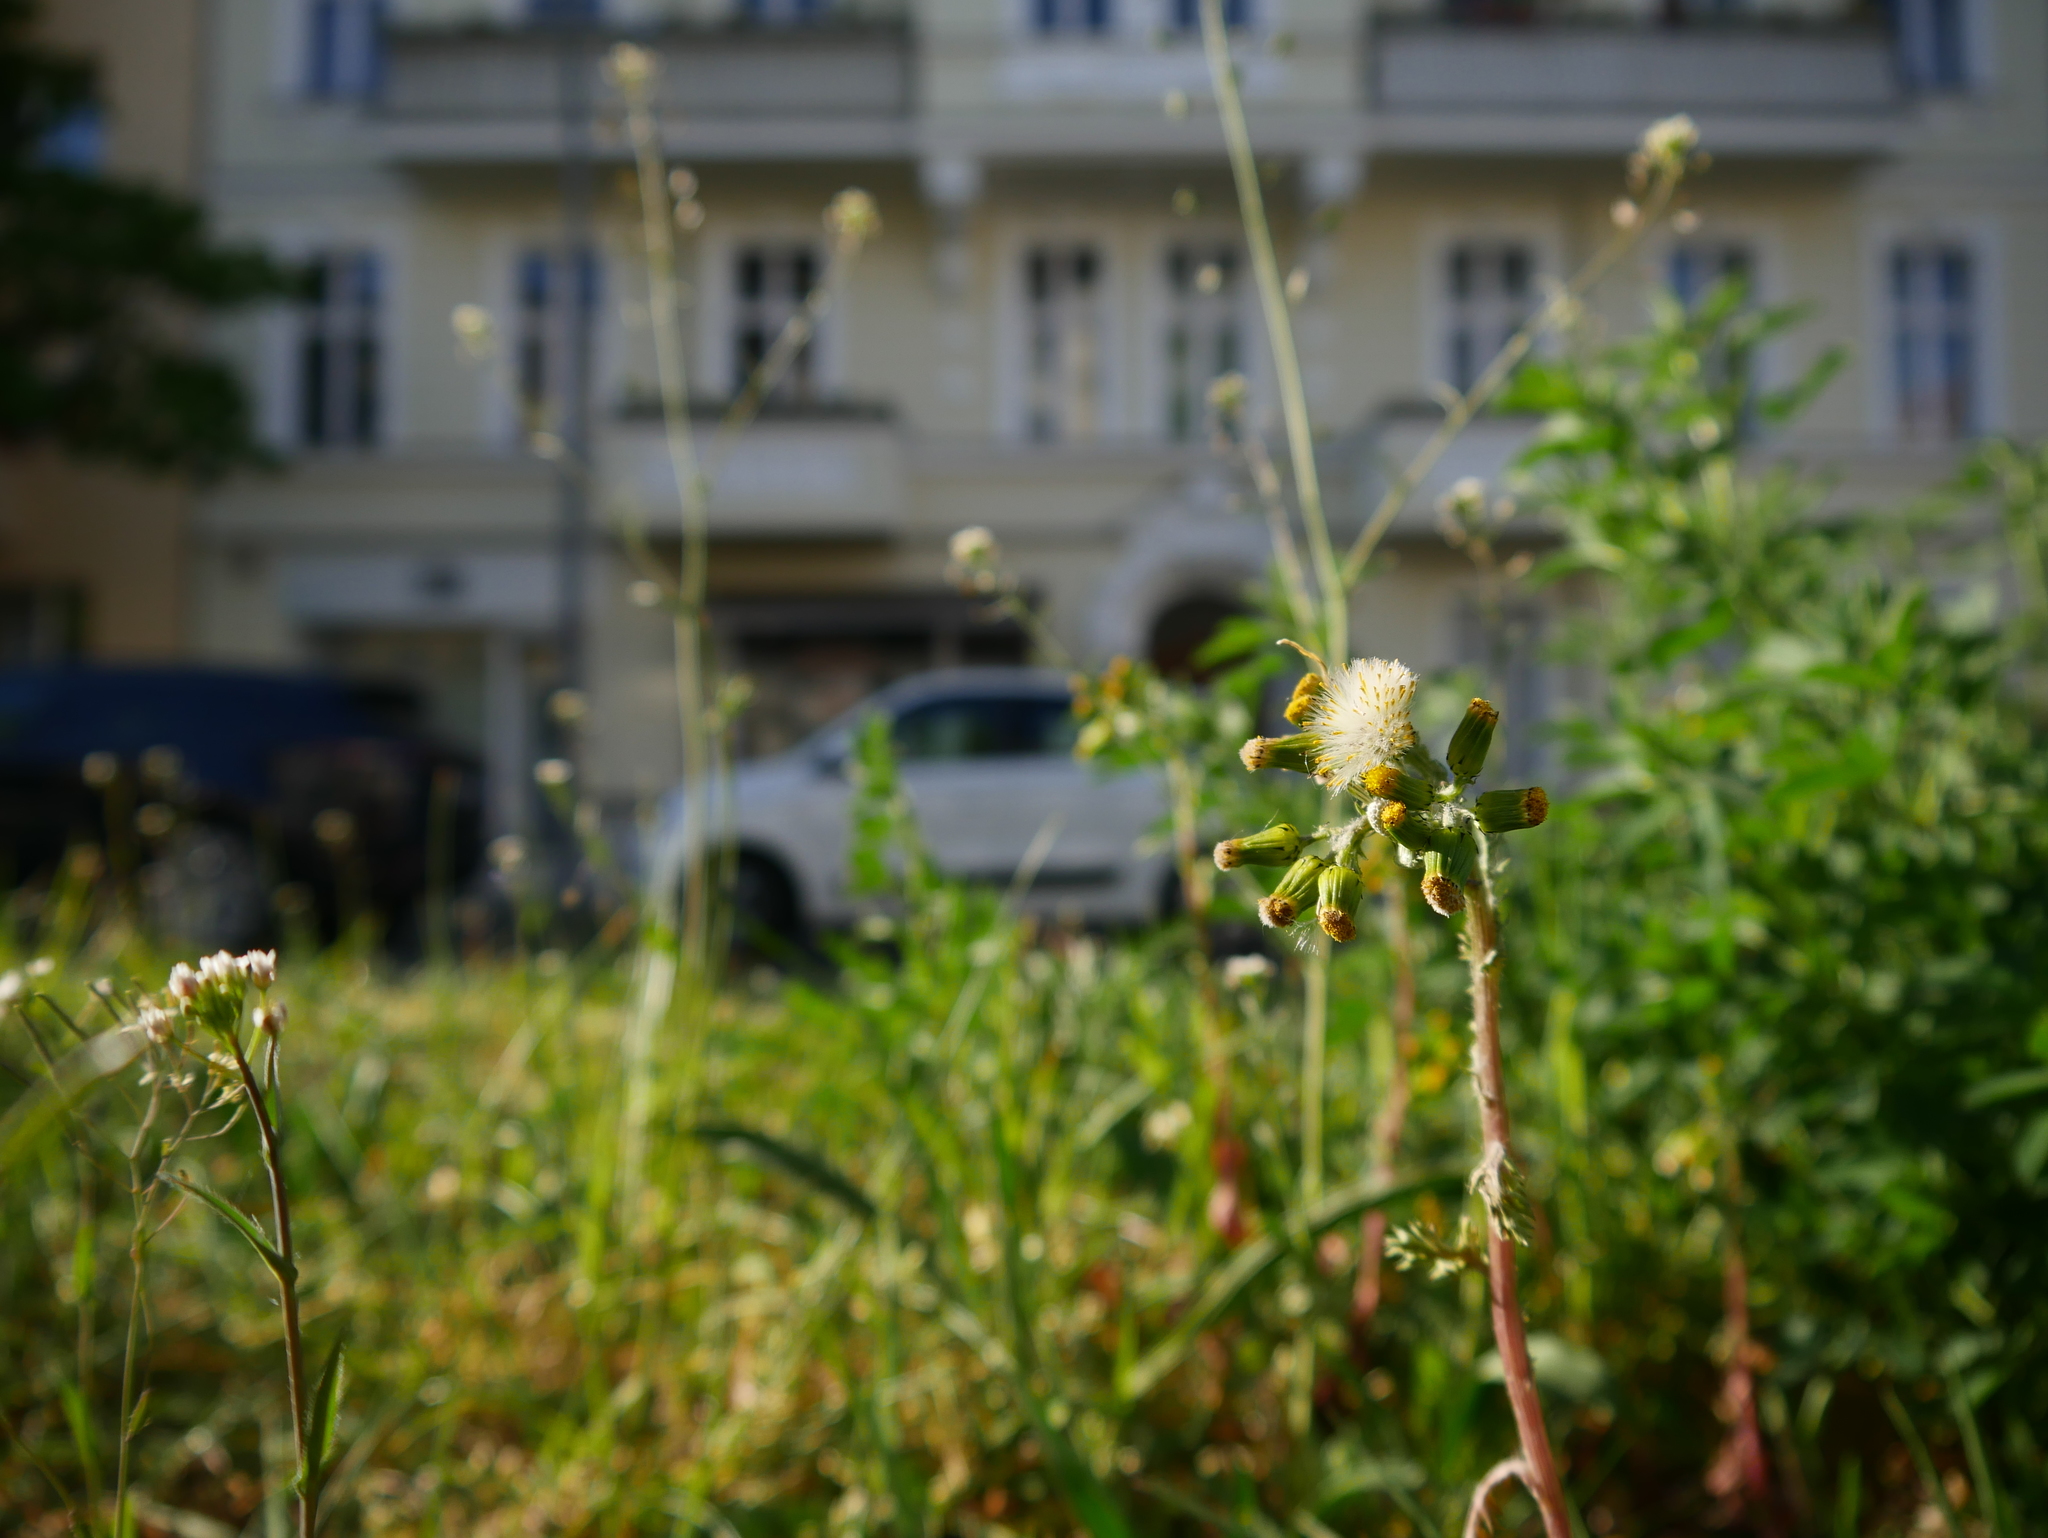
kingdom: Plantae
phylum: Tracheophyta
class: Magnoliopsida
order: Asterales
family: Asteraceae
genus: Senecio
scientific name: Senecio vulgaris
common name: Old-man-in-the-spring
